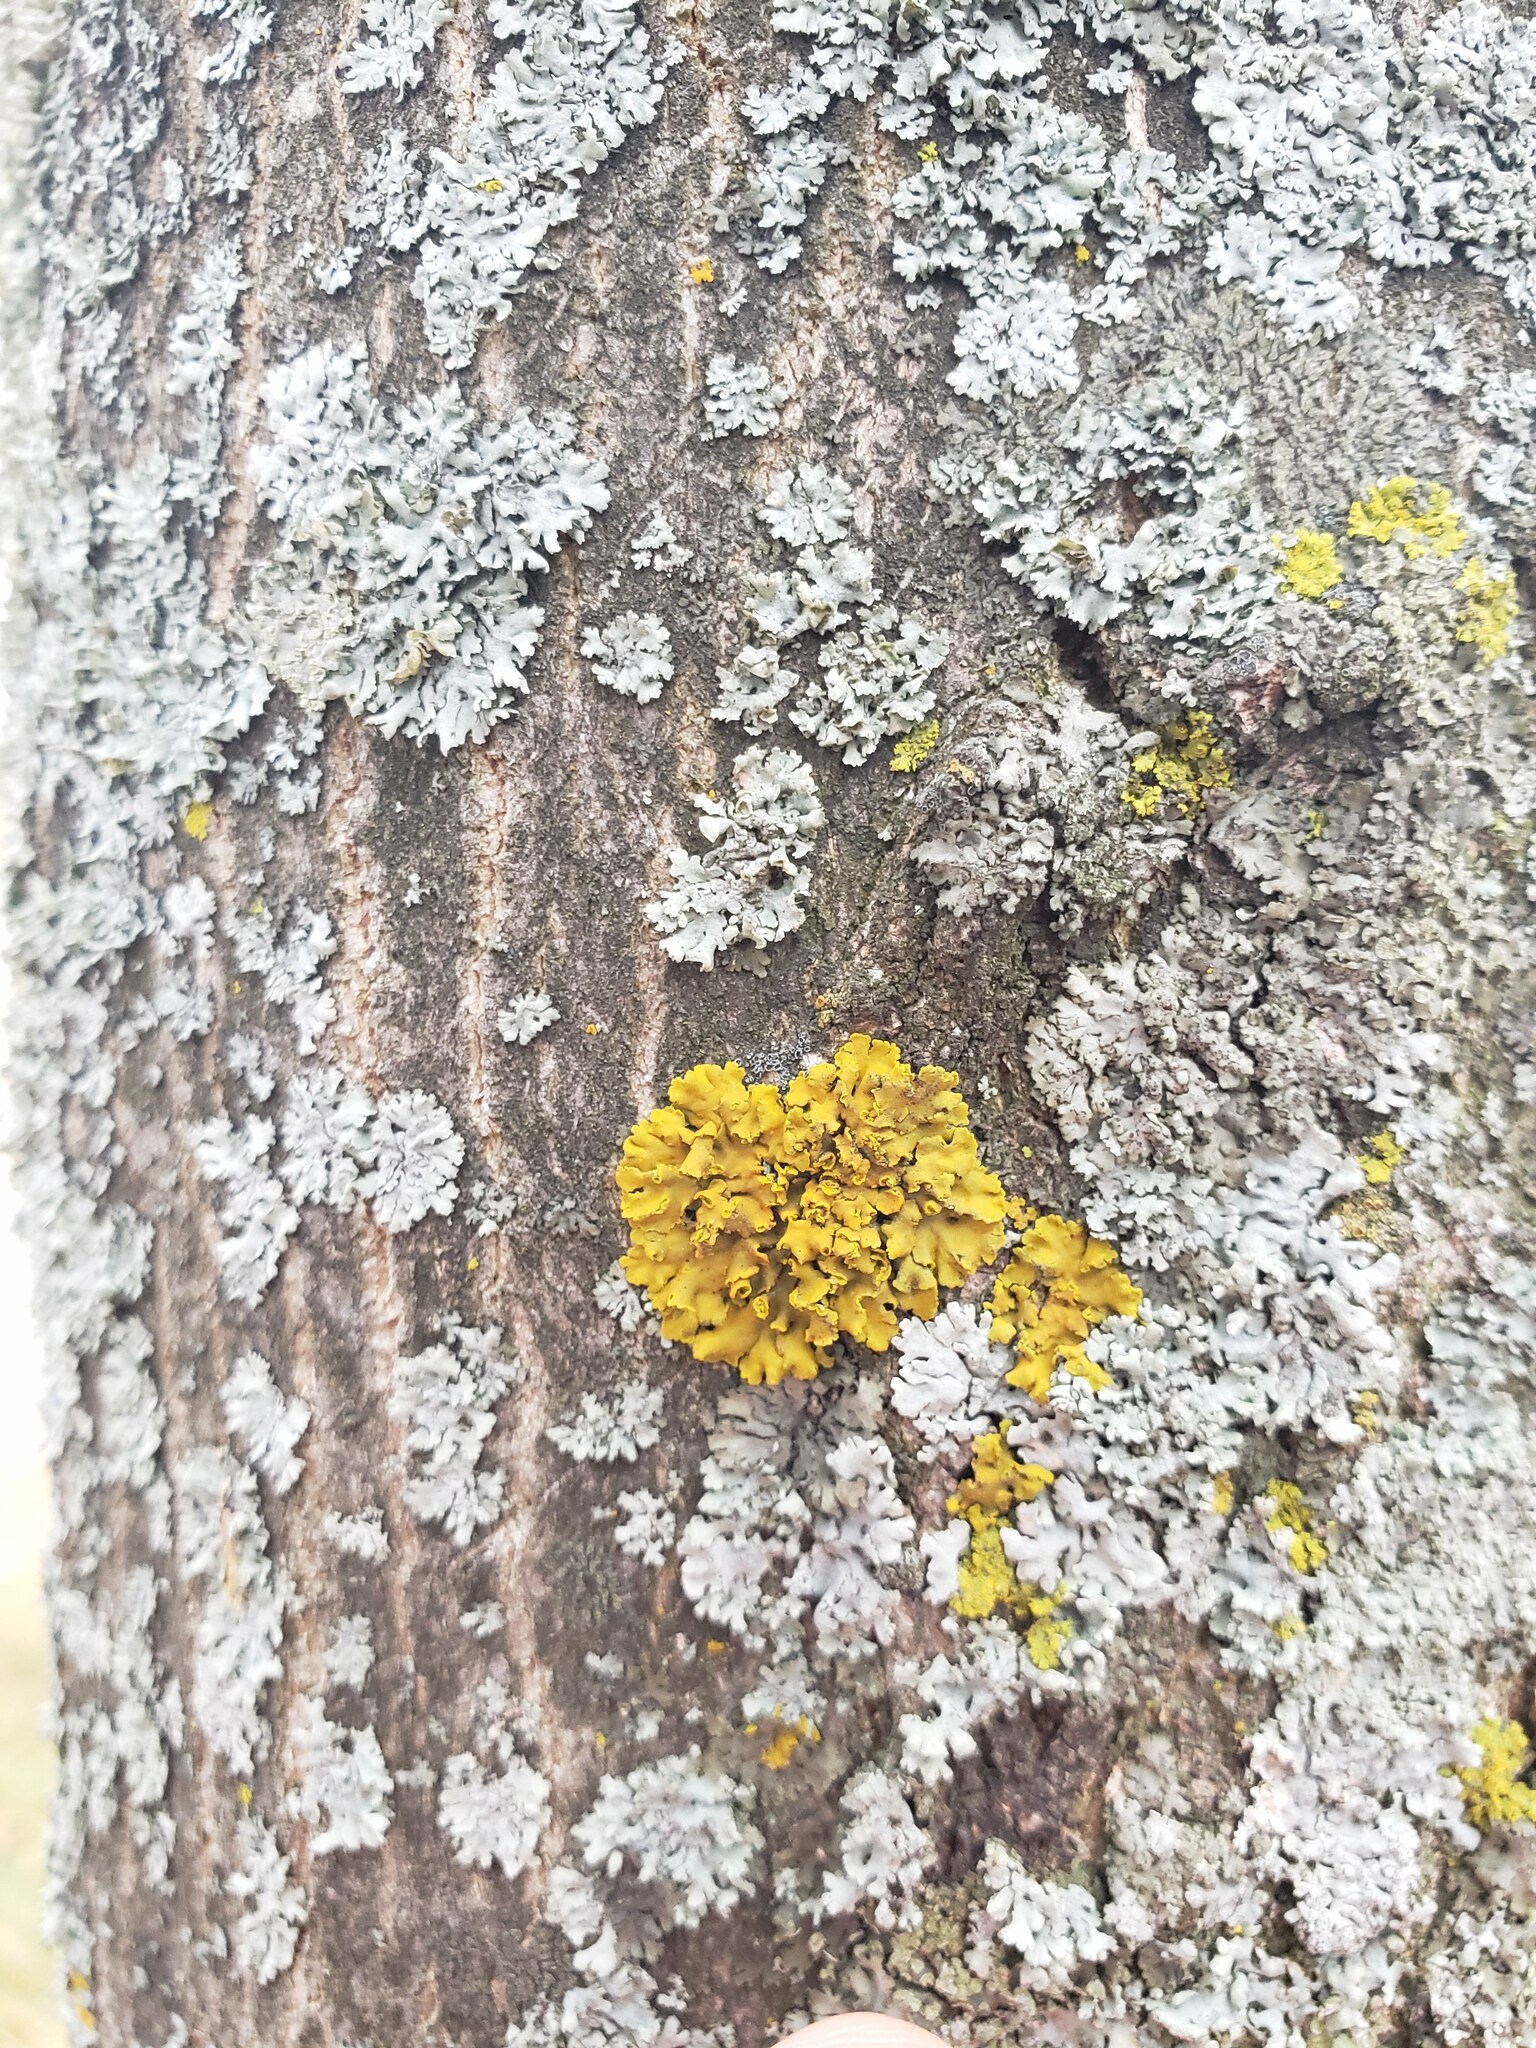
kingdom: Fungi
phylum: Ascomycota
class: Lecanoromycetes
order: Teloschistales
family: Teloschistaceae
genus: Oxneria
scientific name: Oxneria fallax
